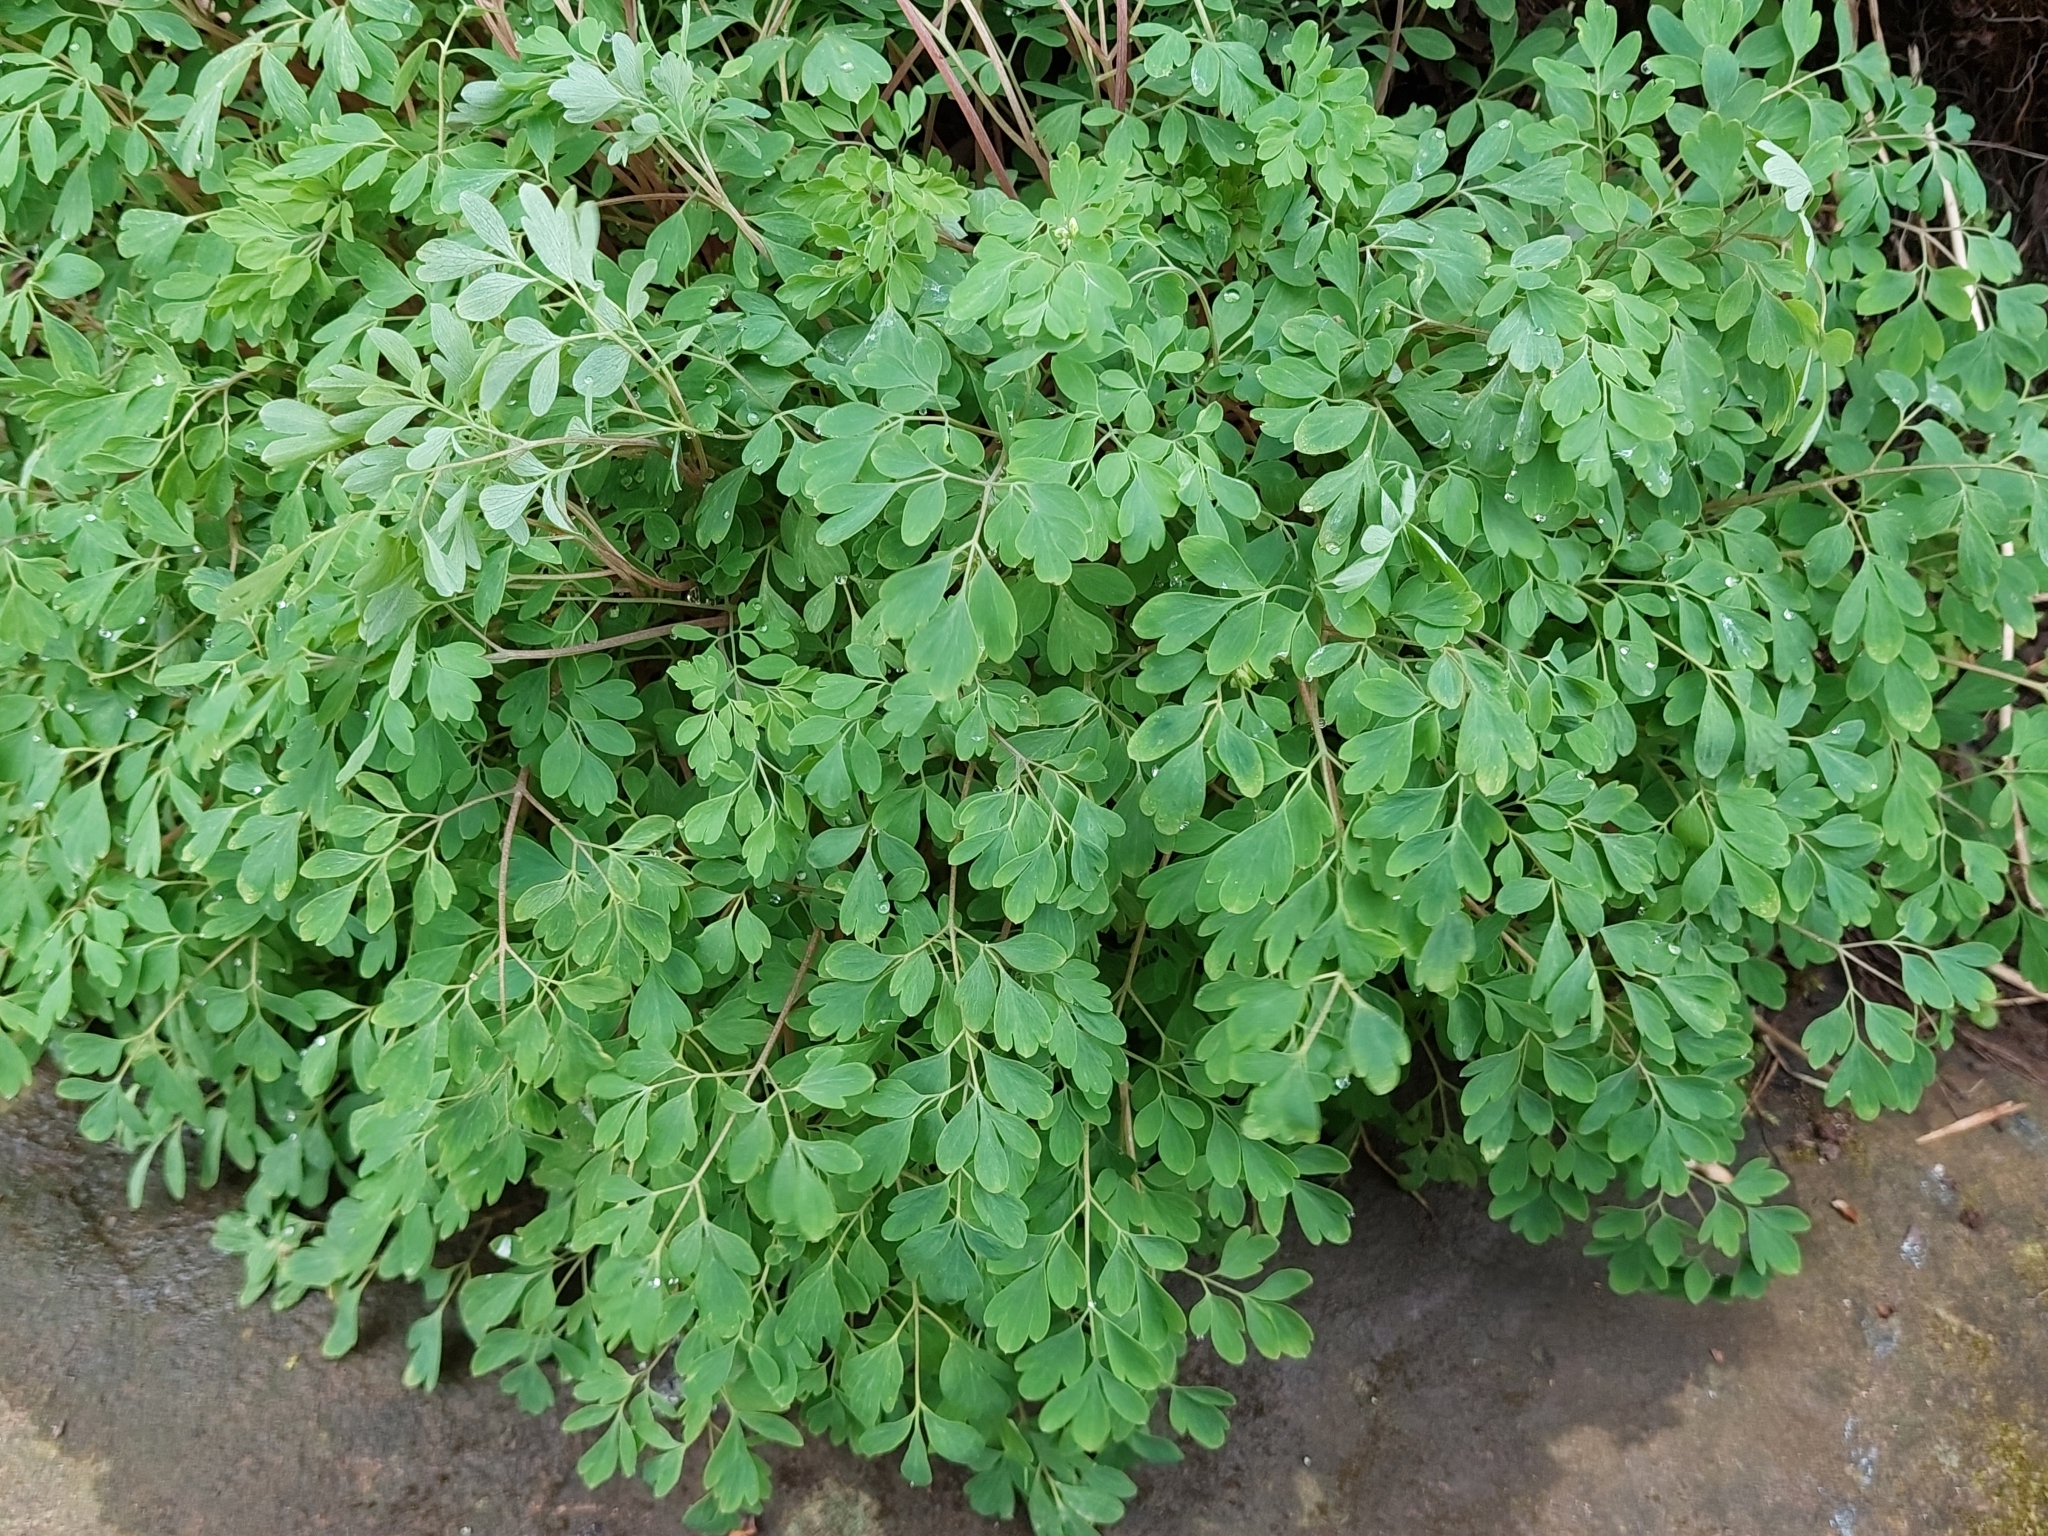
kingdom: Plantae
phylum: Tracheophyta
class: Magnoliopsida
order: Ranunculales
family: Papaveraceae
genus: Pseudofumaria
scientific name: Pseudofumaria lutea
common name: Yellow corydalis
